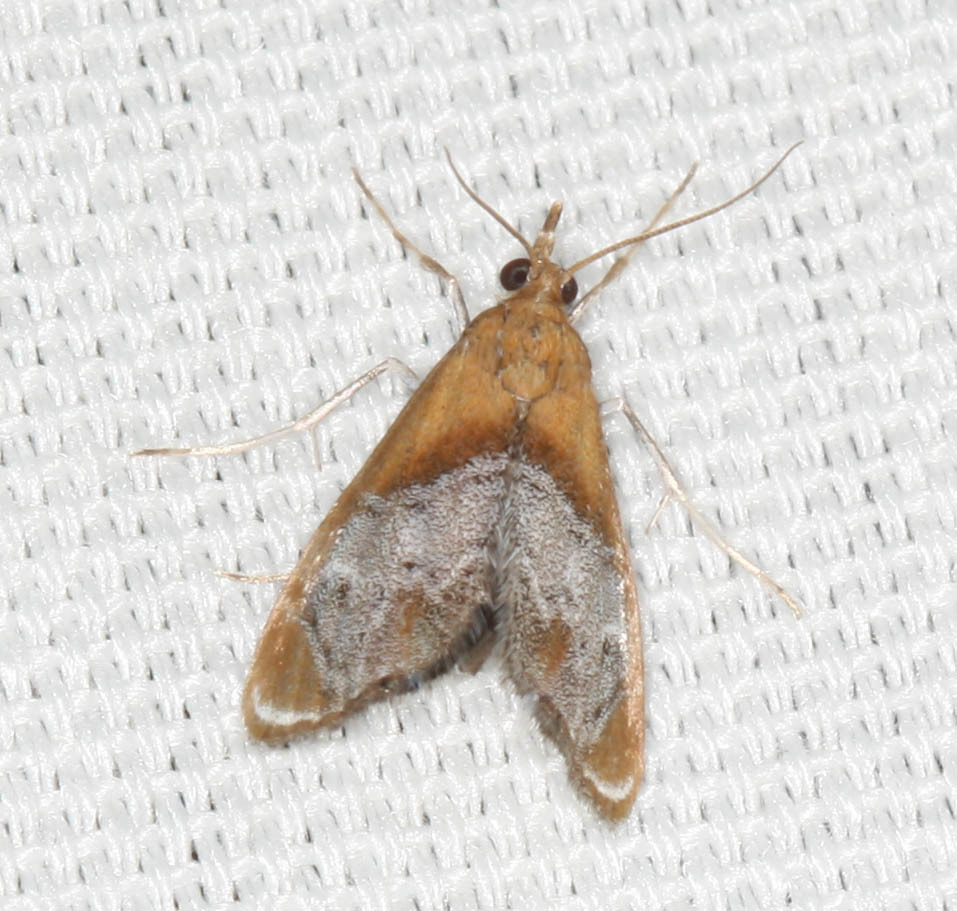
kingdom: Animalia
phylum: Arthropoda
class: Insecta
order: Lepidoptera
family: Crambidae
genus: Chalcoela
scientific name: Chalcoela iphitalis
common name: Sooty-winged chalcoela moth
